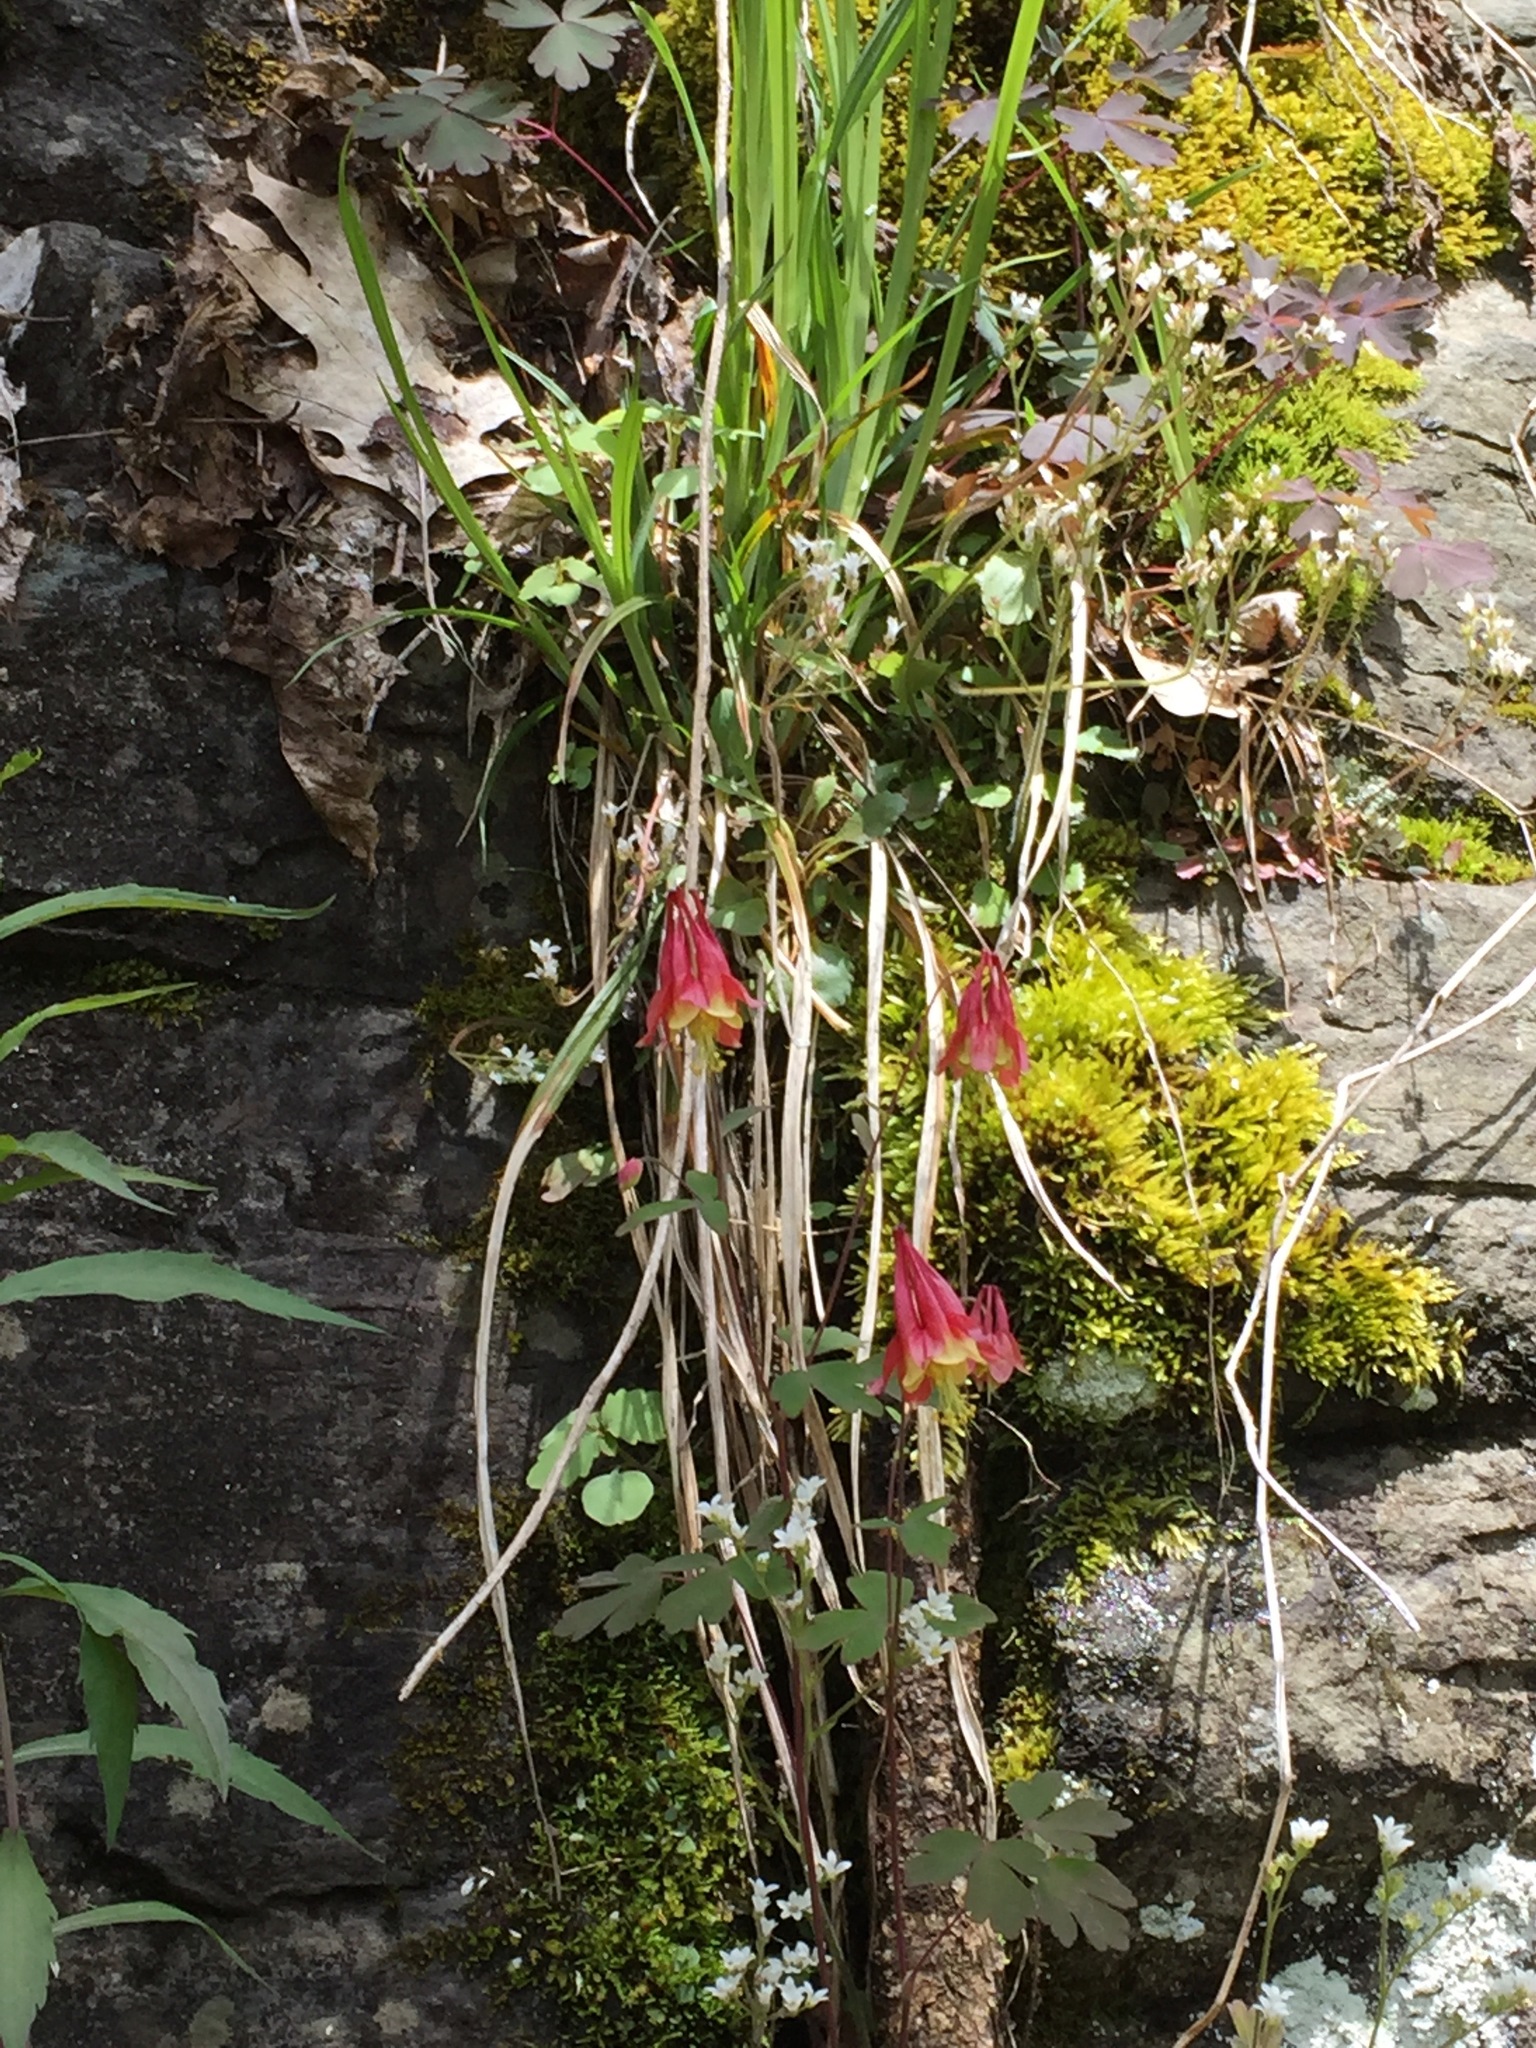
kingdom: Plantae
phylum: Tracheophyta
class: Magnoliopsida
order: Ranunculales
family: Ranunculaceae
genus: Aquilegia
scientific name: Aquilegia canadensis
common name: American columbine
